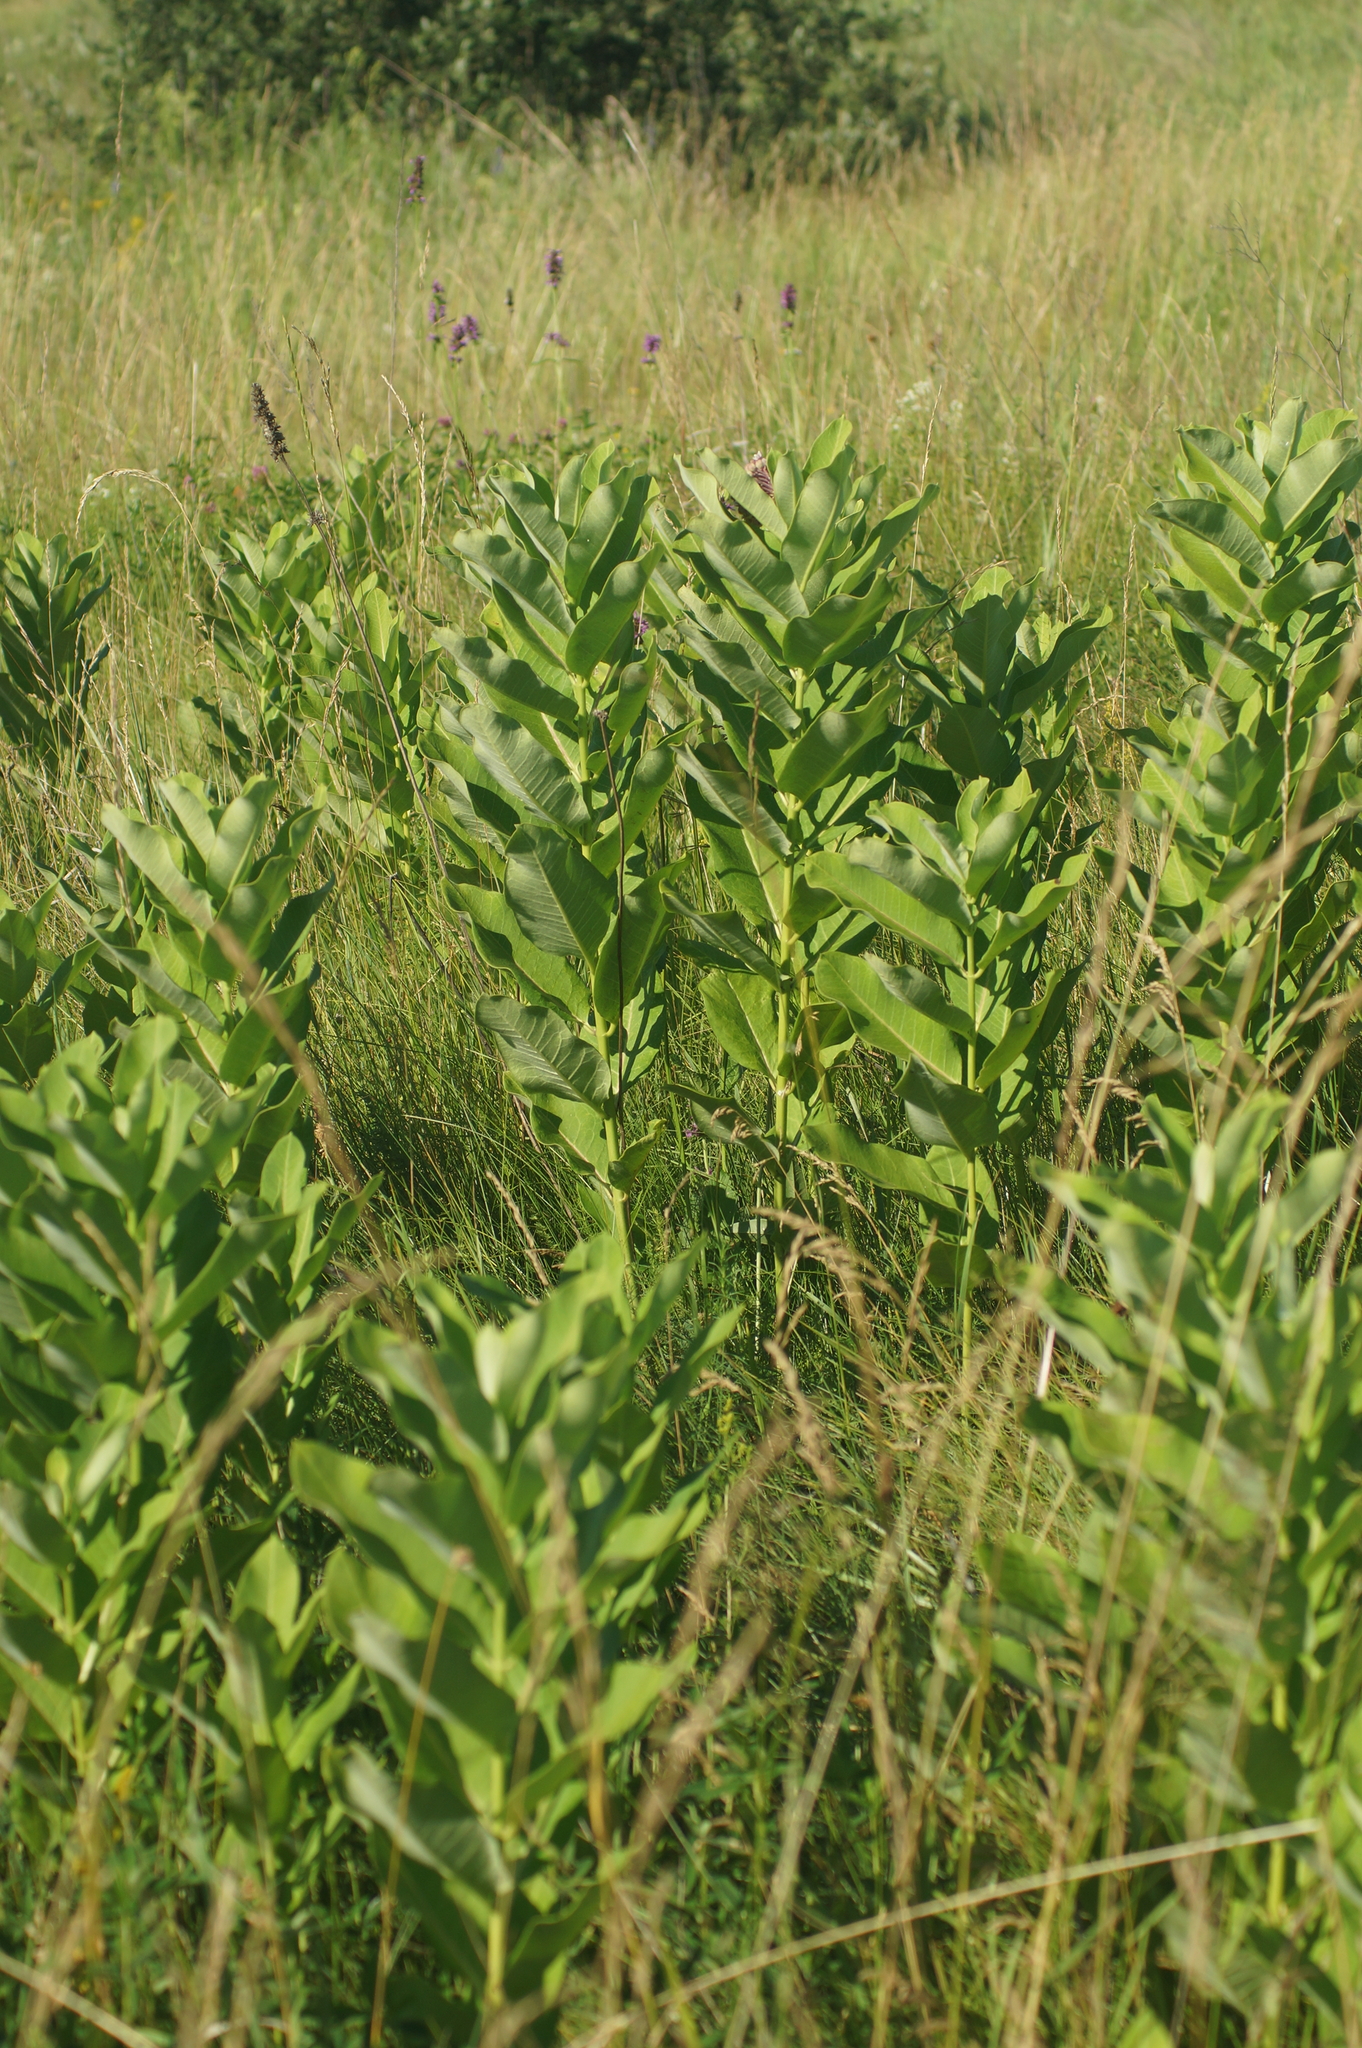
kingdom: Plantae
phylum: Tracheophyta
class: Magnoliopsida
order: Gentianales
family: Apocynaceae
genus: Asclepias
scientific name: Asclepias syriaca
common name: Common milkweed
